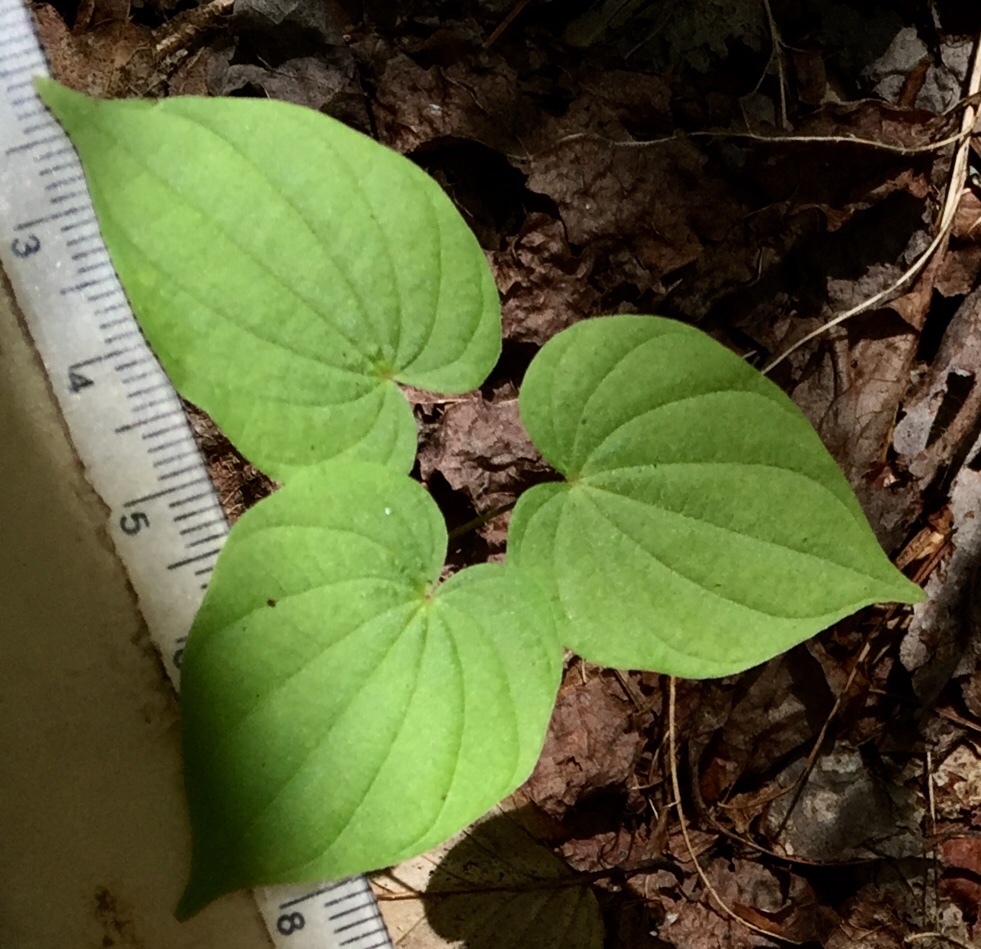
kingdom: Plantae
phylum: Tracheophyta
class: Liliopsida
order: Dioscoreales
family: Dioscoreaceae
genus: Dioscorea
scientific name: Dioscorea villosa
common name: Wild yam
